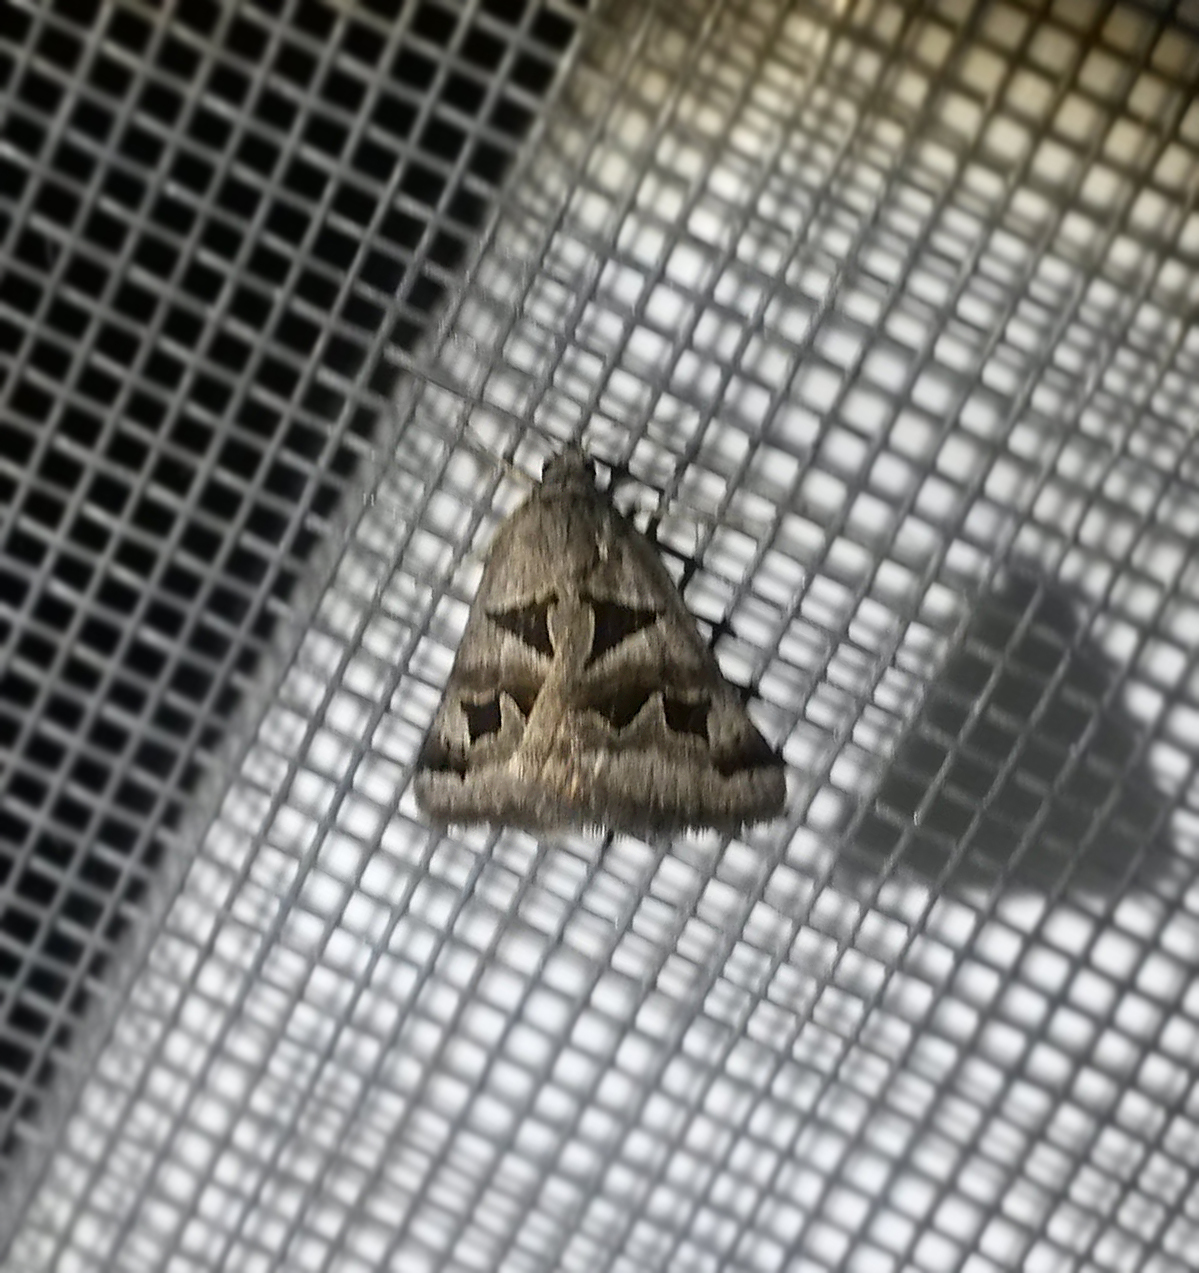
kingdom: Animalia
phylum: Arthropoda
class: Insecta
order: Lepidoptera
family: Erebidae
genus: Euclidia
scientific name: Euclidia triquetra
